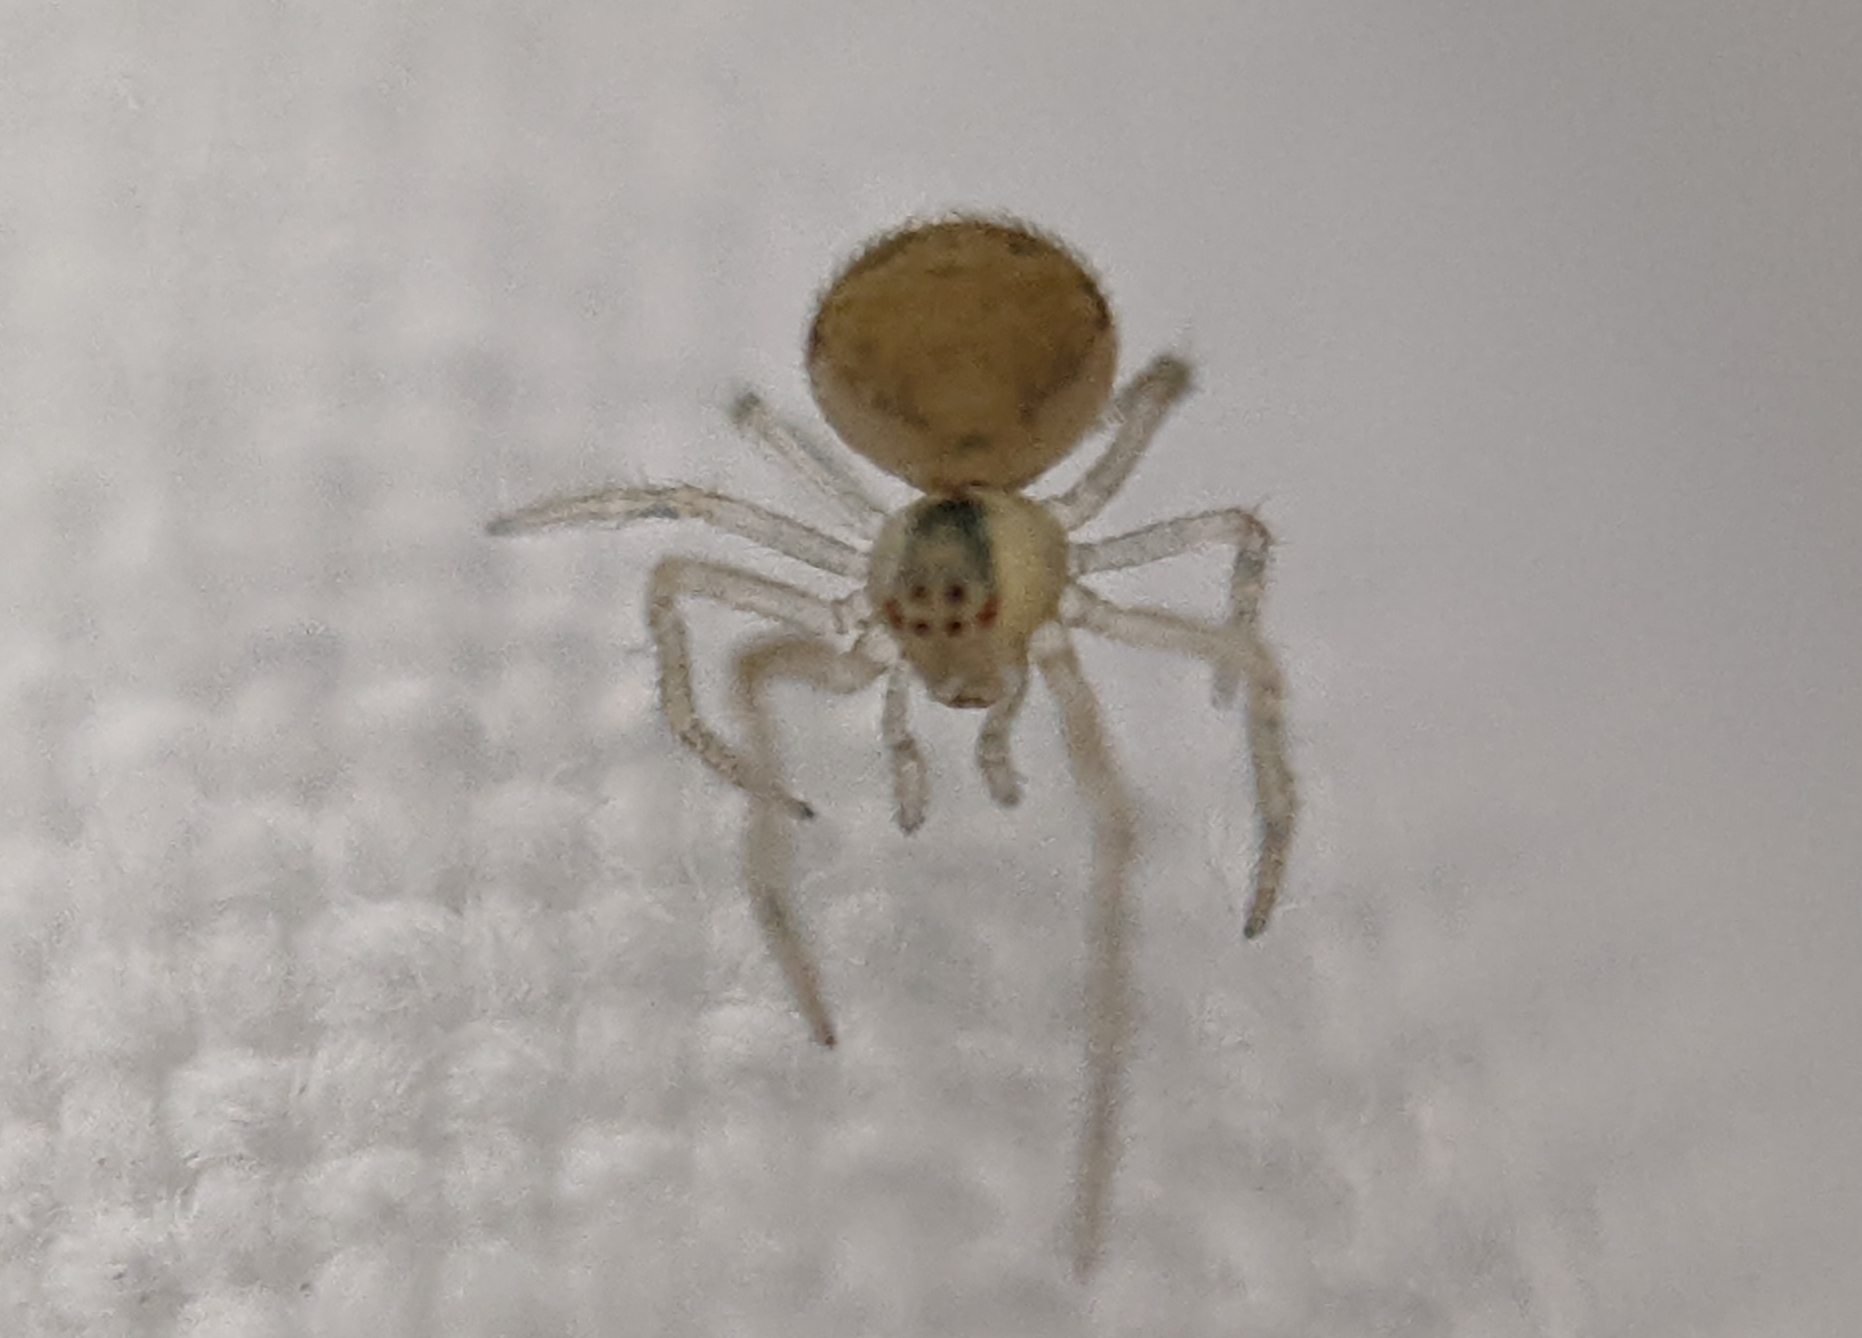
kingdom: Animalia
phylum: Arthropoda
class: Arachnida
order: Araneae
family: Theridiidae
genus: Paidiscura
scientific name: Paidiscura pallens
